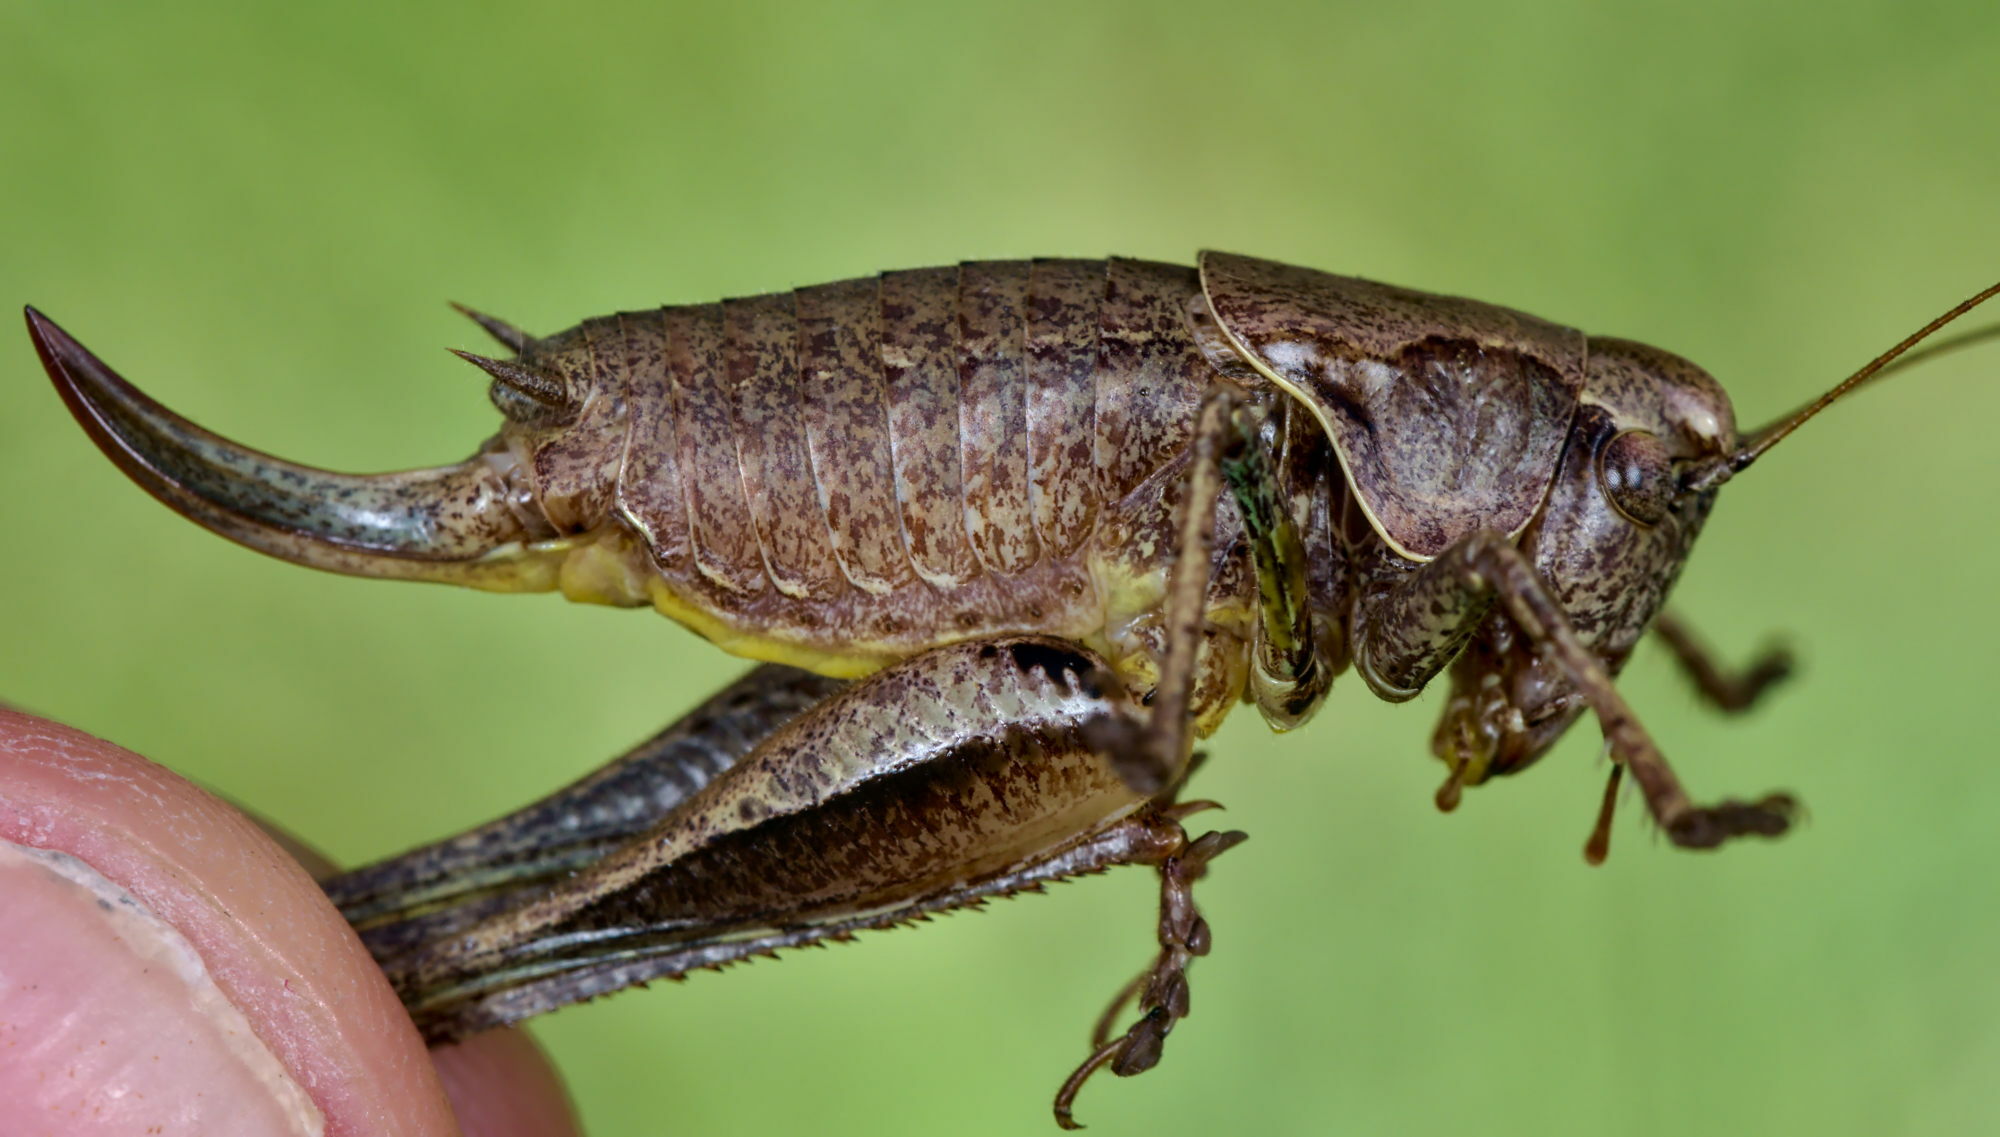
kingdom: Animalia
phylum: Arthropoda
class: Insecta
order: Orthoptera
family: Tettigoniidae
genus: Pholidoptera
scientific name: Pholidoptera griseoaptera
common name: Dark bush-cricket
